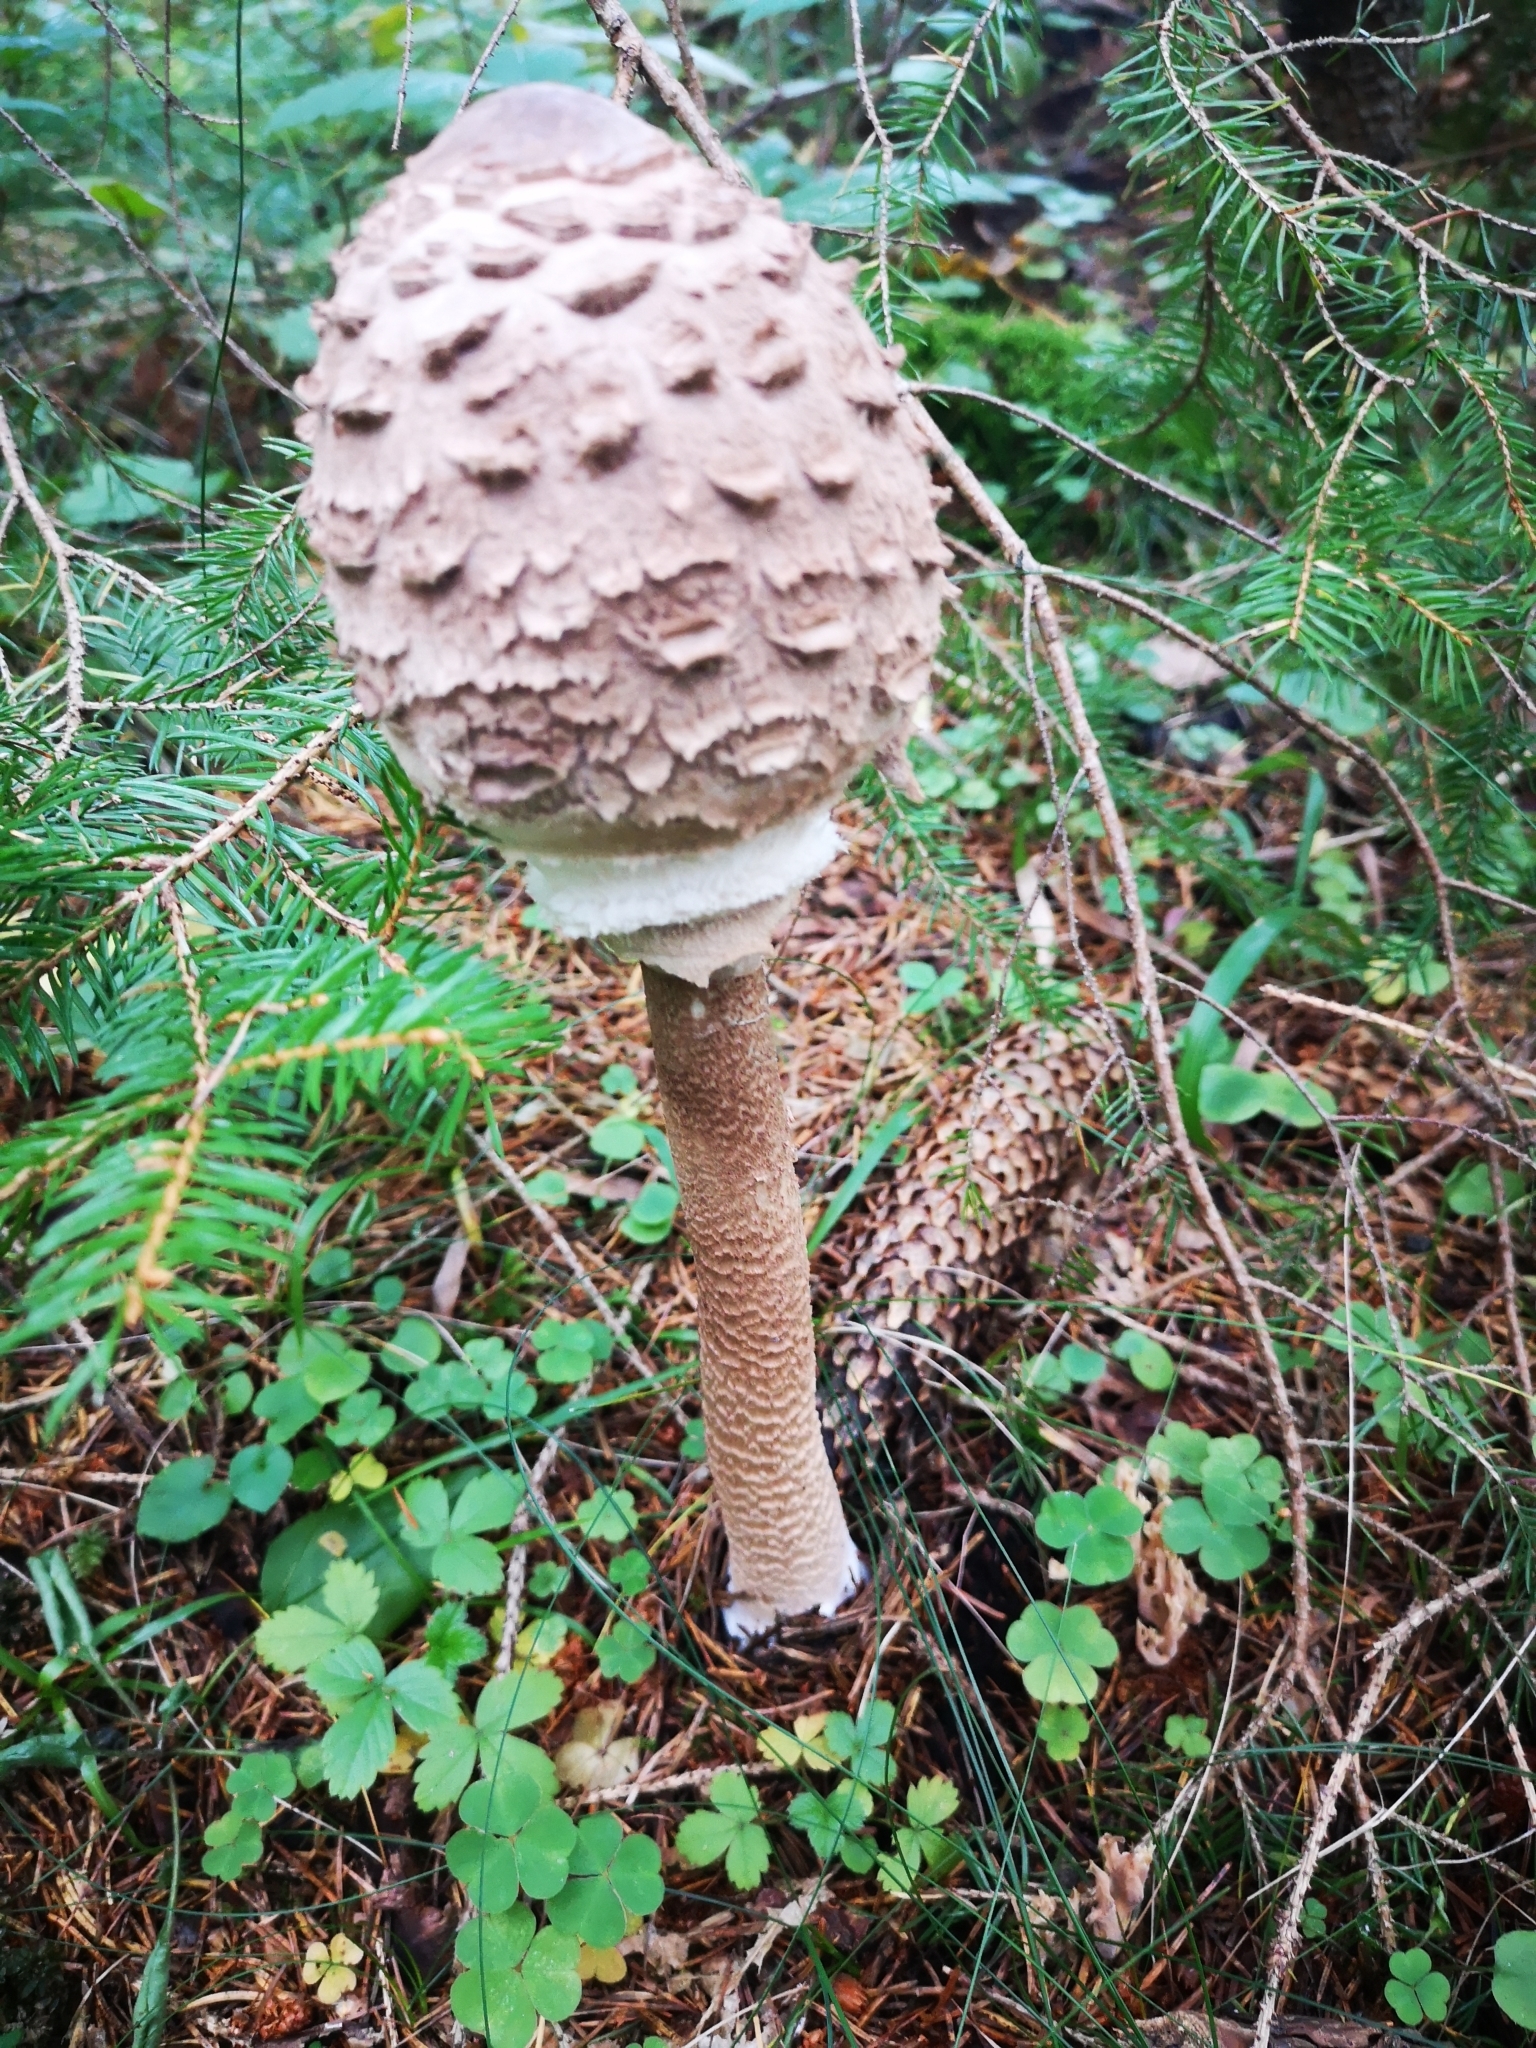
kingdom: Fungi
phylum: Basidiomycota
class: Agaricomycetes
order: Agaricales
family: Agaricaceae
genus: Macrolepiota
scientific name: Macrolepiota procera
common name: Parasol
